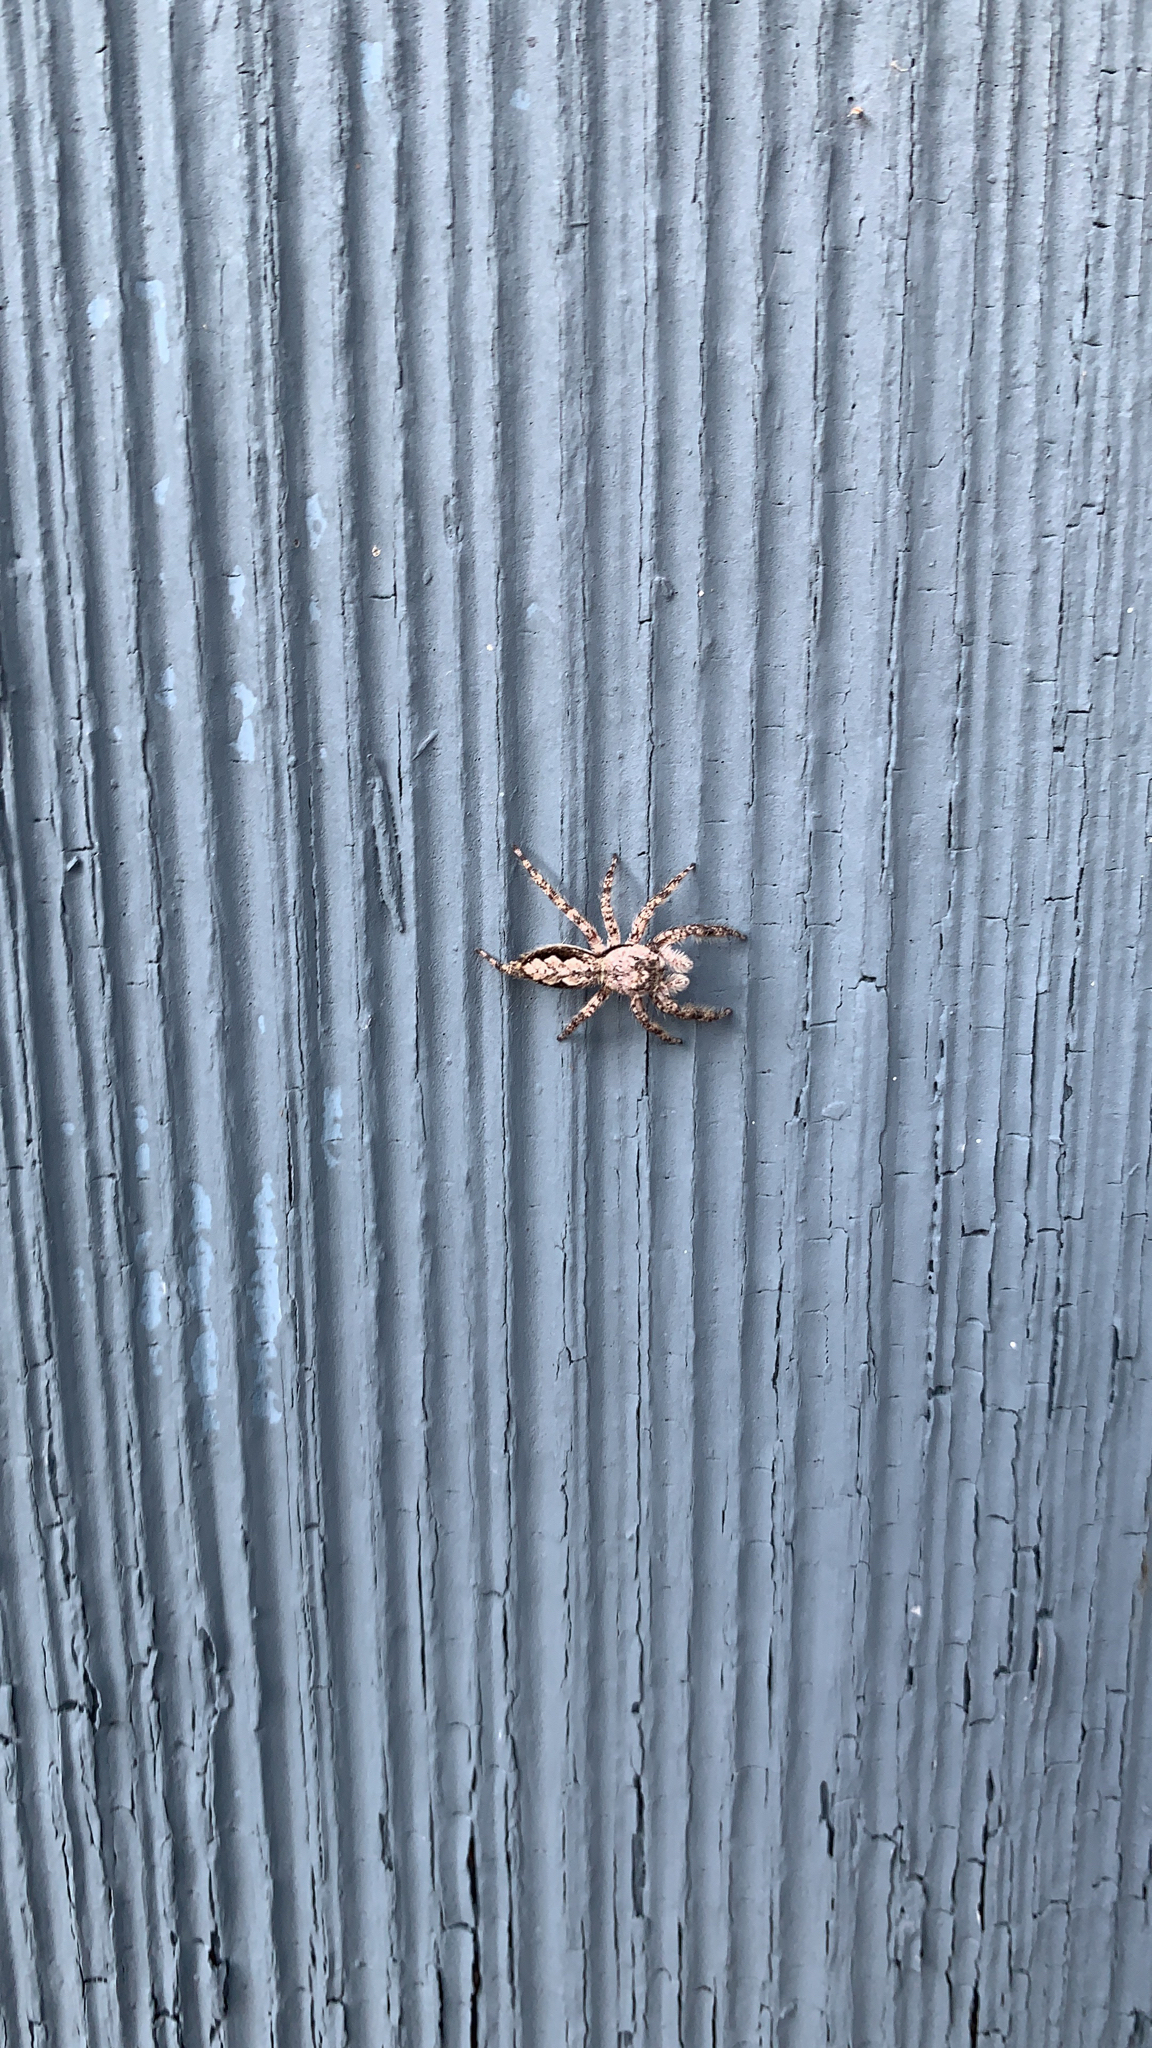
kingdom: Animalia
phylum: Arthropoda
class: Arachnida
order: Araneae
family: Salticidae
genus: Platycryptus
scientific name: Platycryptus undatus
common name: Tan jumping spider
